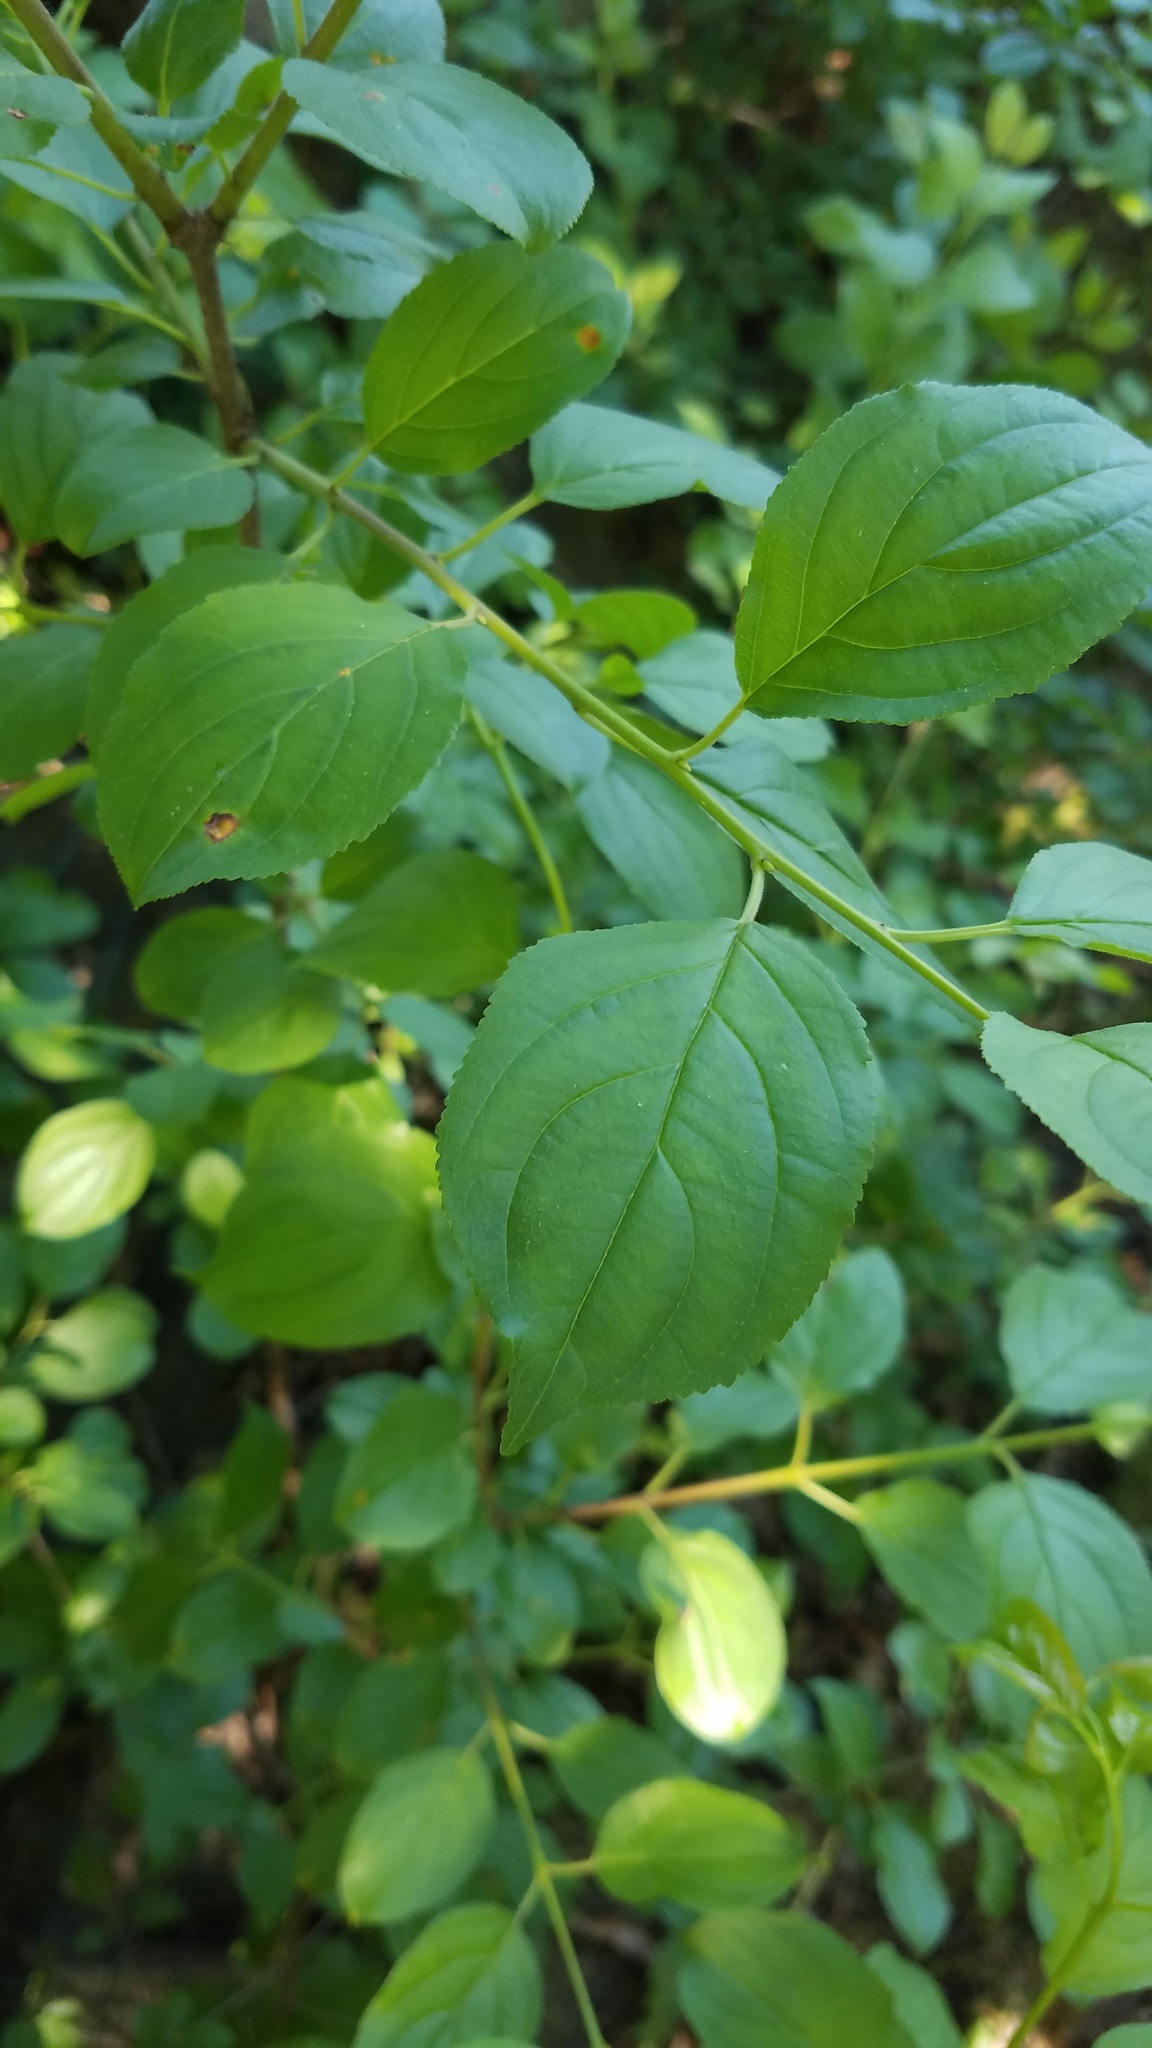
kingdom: Plantae
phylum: Tracheophyta
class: Magnoliopsida
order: Rosales
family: Rhamnaceae
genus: Rhamnus
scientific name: Rhamnus cathartica
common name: Common buckthorn
